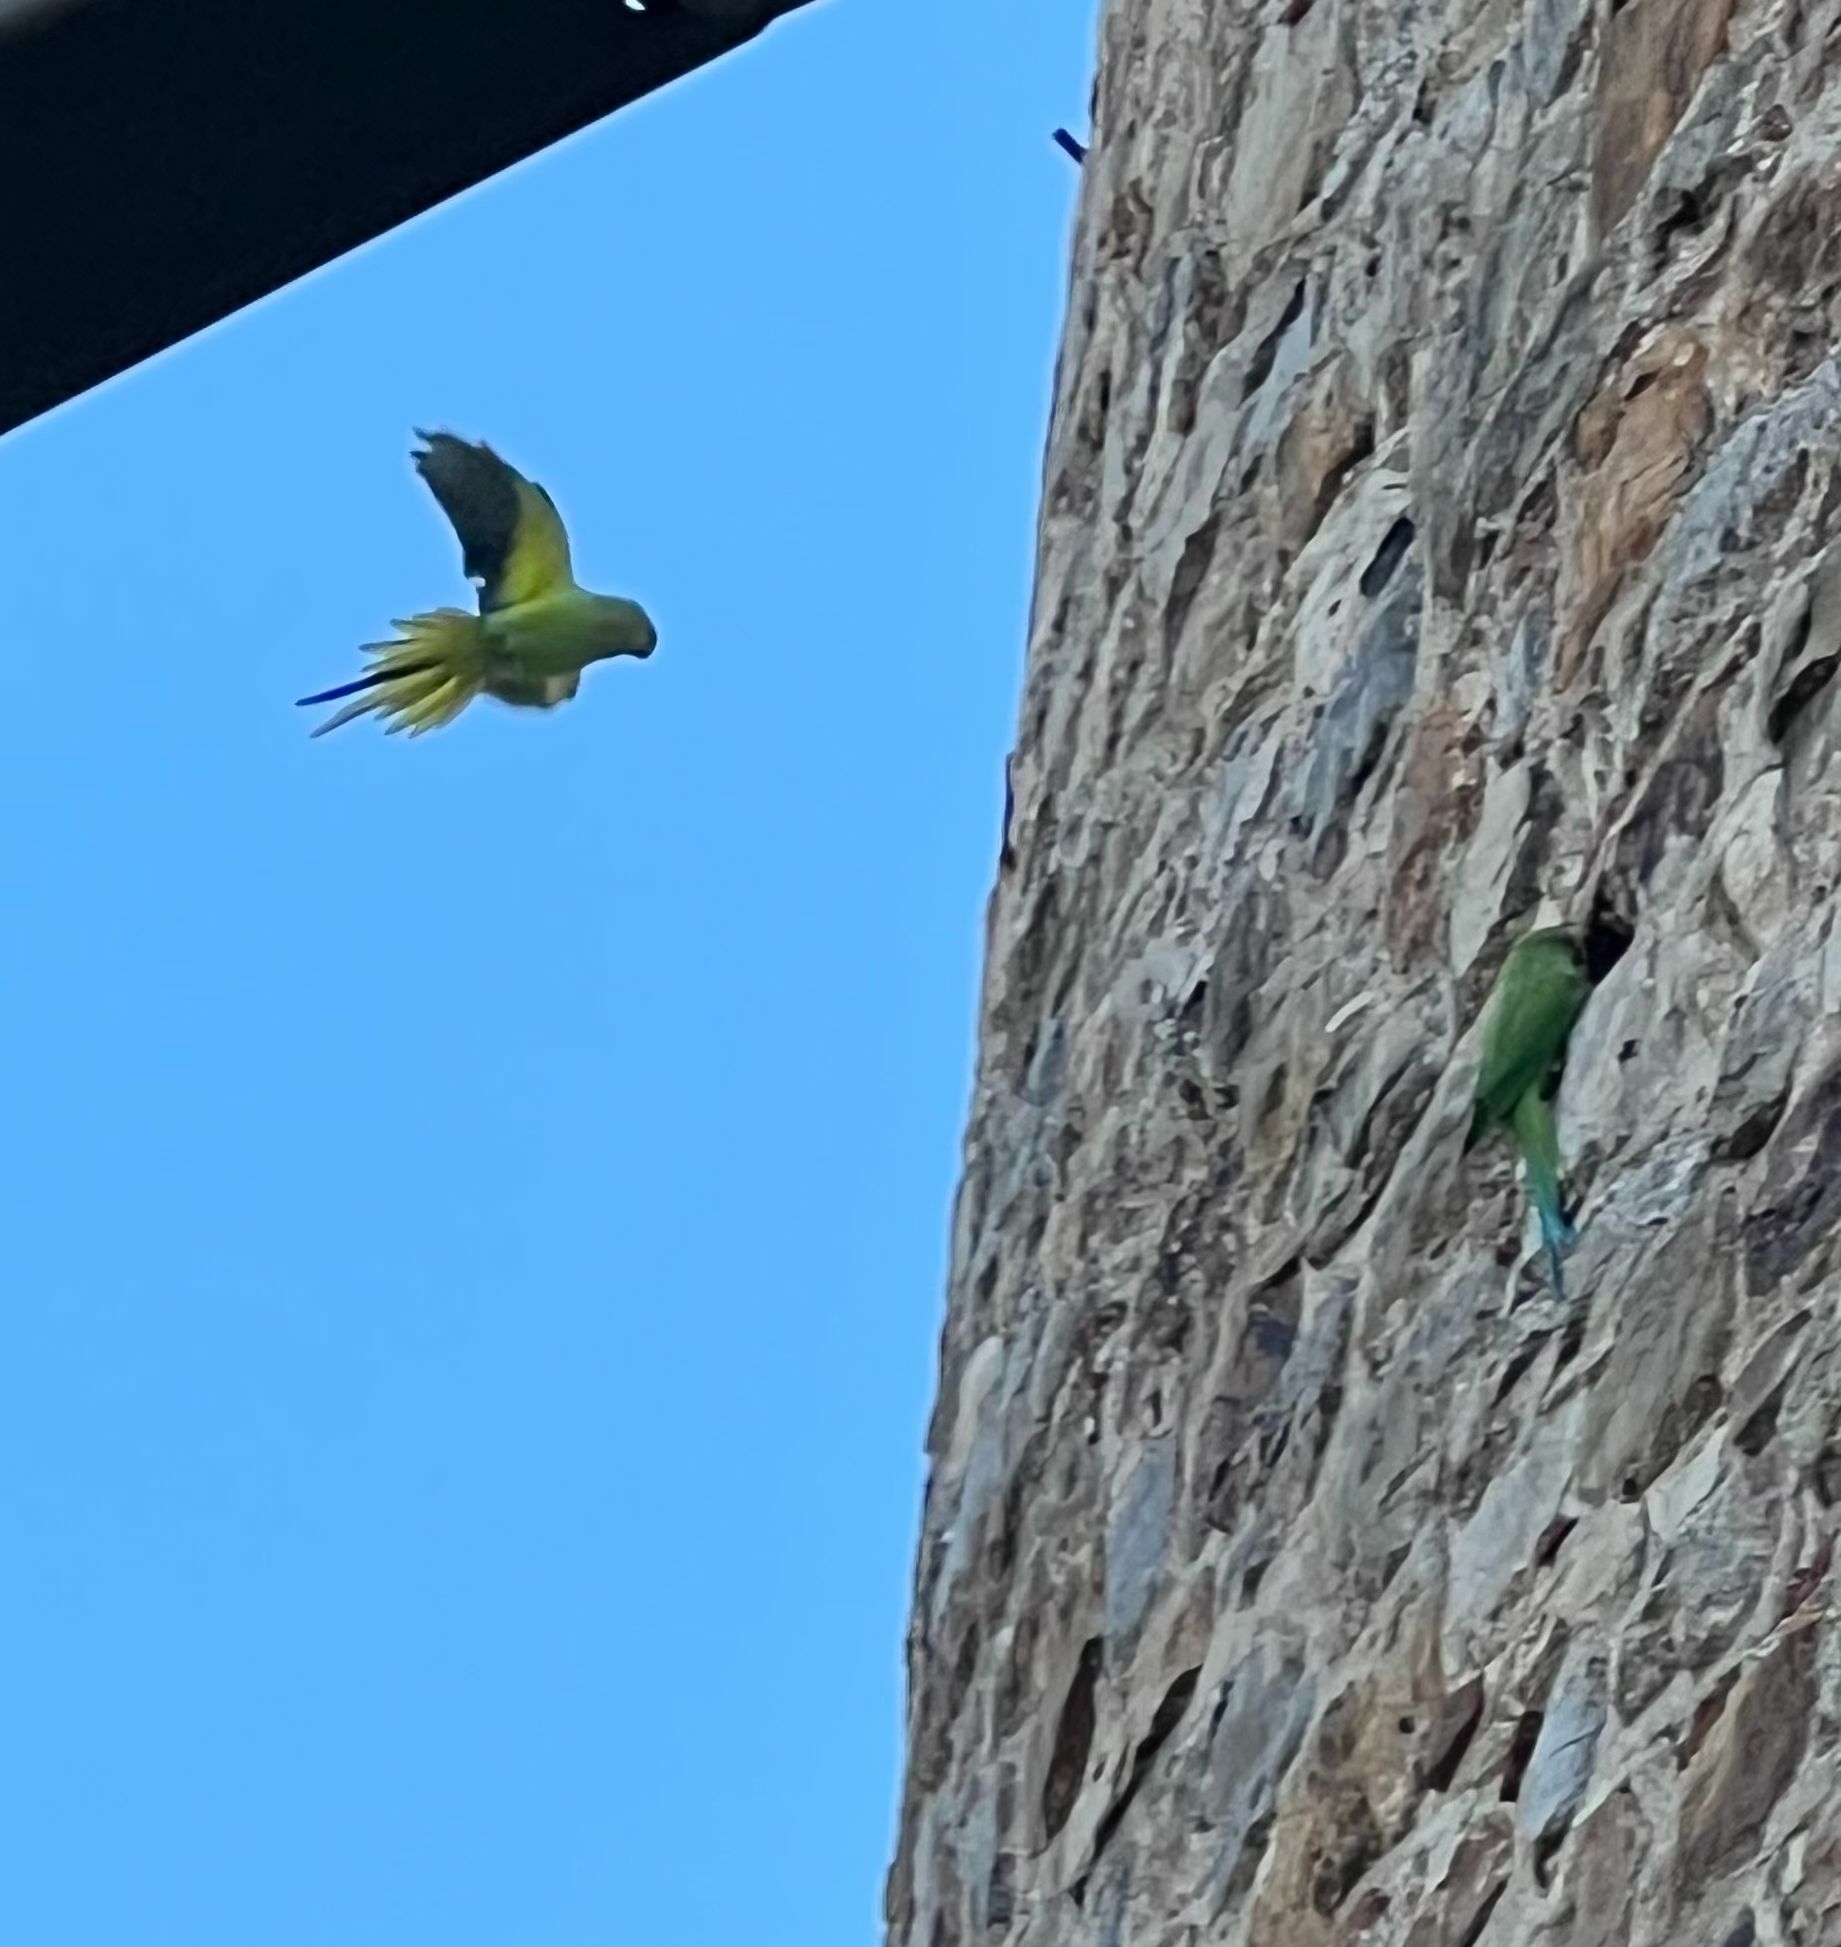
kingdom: Animalia
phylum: Chordata
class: Aves
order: Psittaciformes
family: Psittacidae
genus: Psittacula
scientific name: Psittacula krameri
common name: Rose-ringed parakeet
